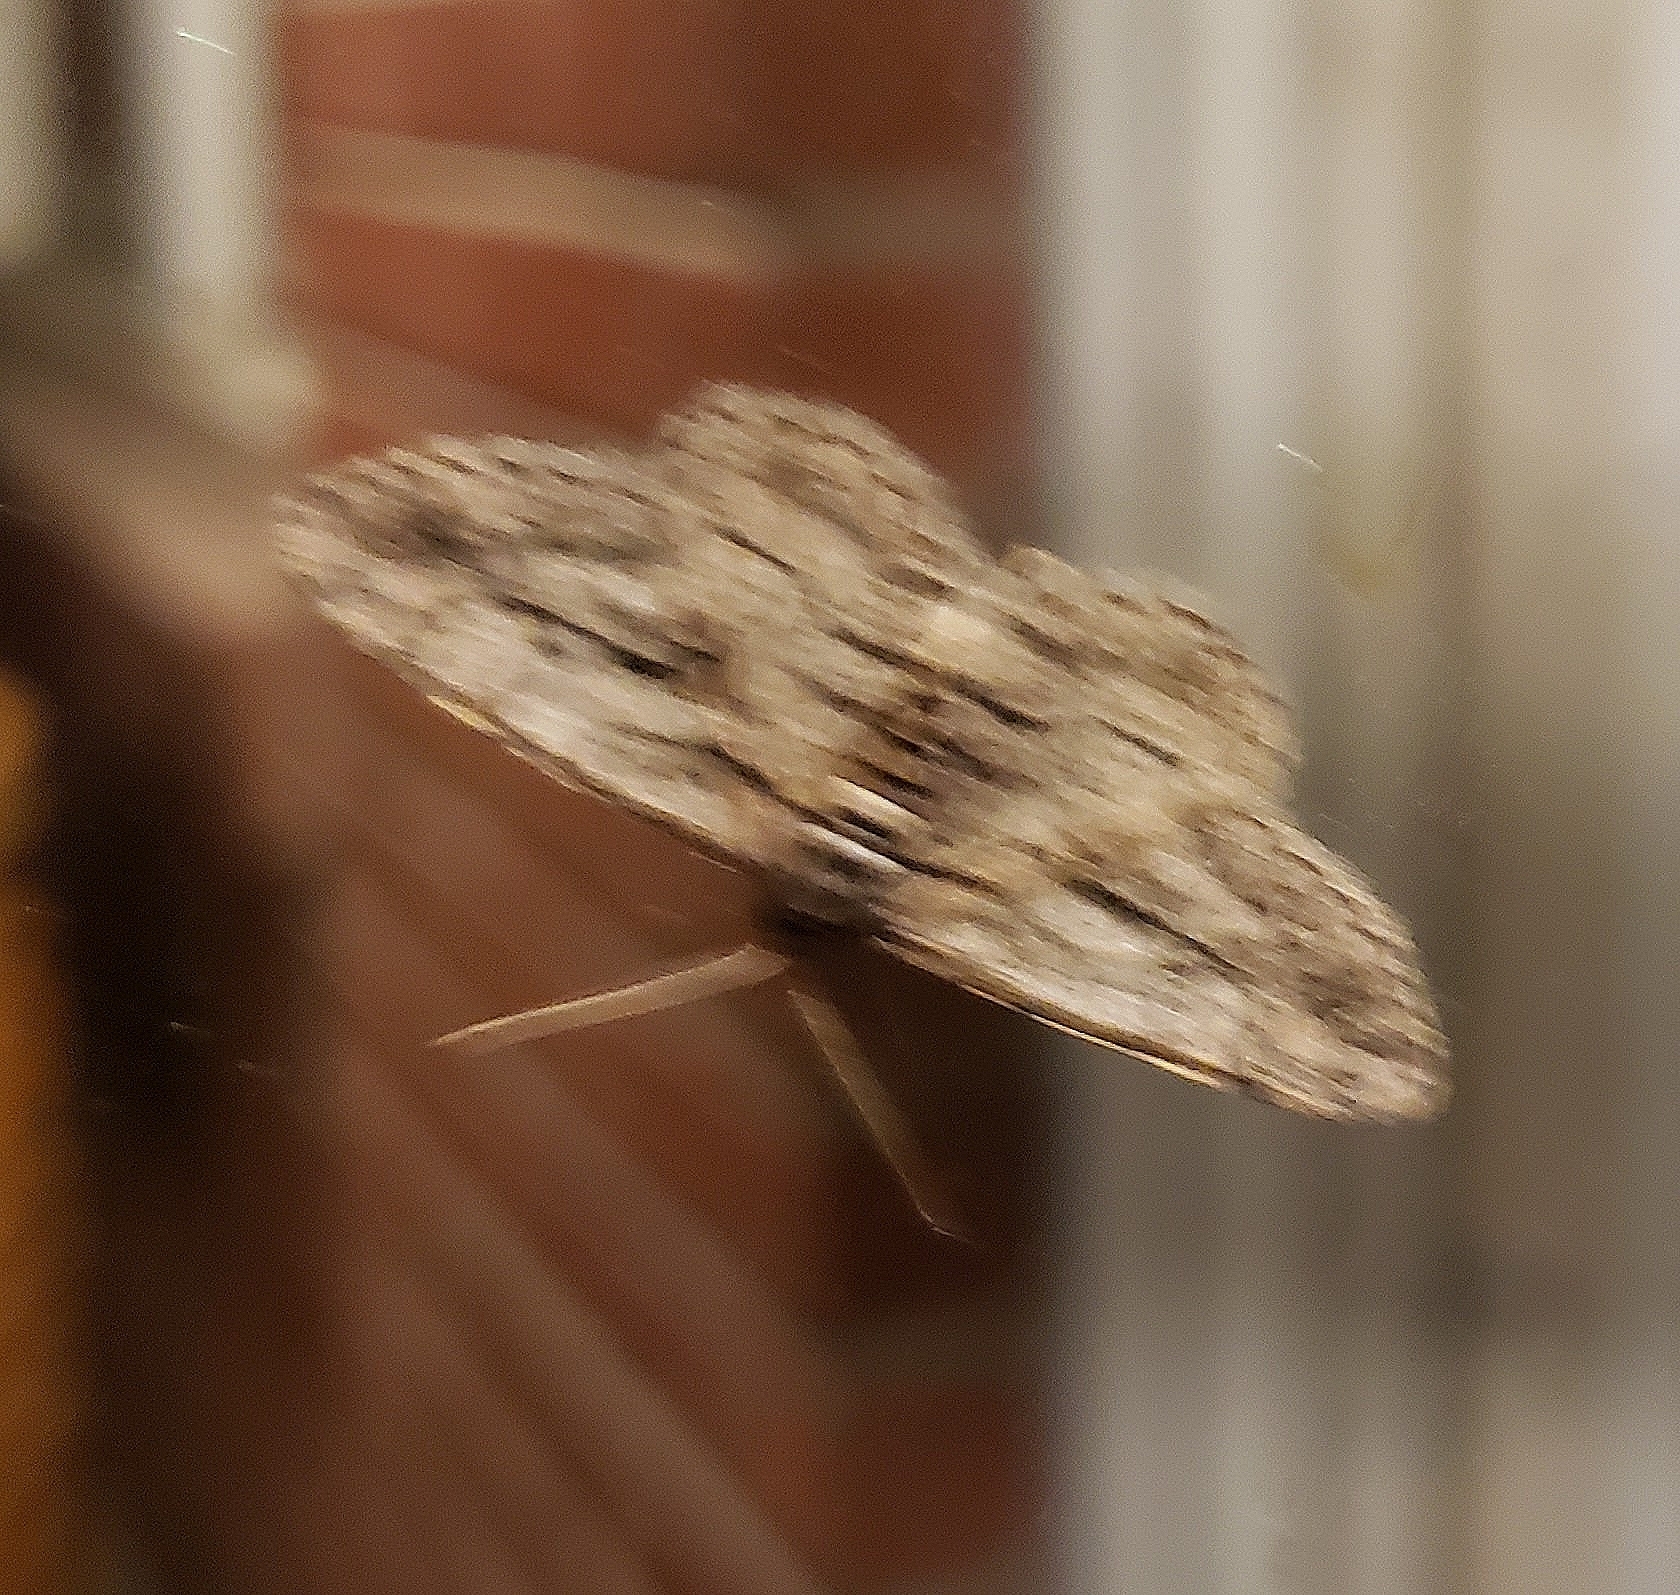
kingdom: Animalia
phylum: Arthropoda
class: Insecta
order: Lepidoptera
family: Geometridae
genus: Anavitrinella
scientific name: Anavitrinella pampinaria
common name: Common gray
